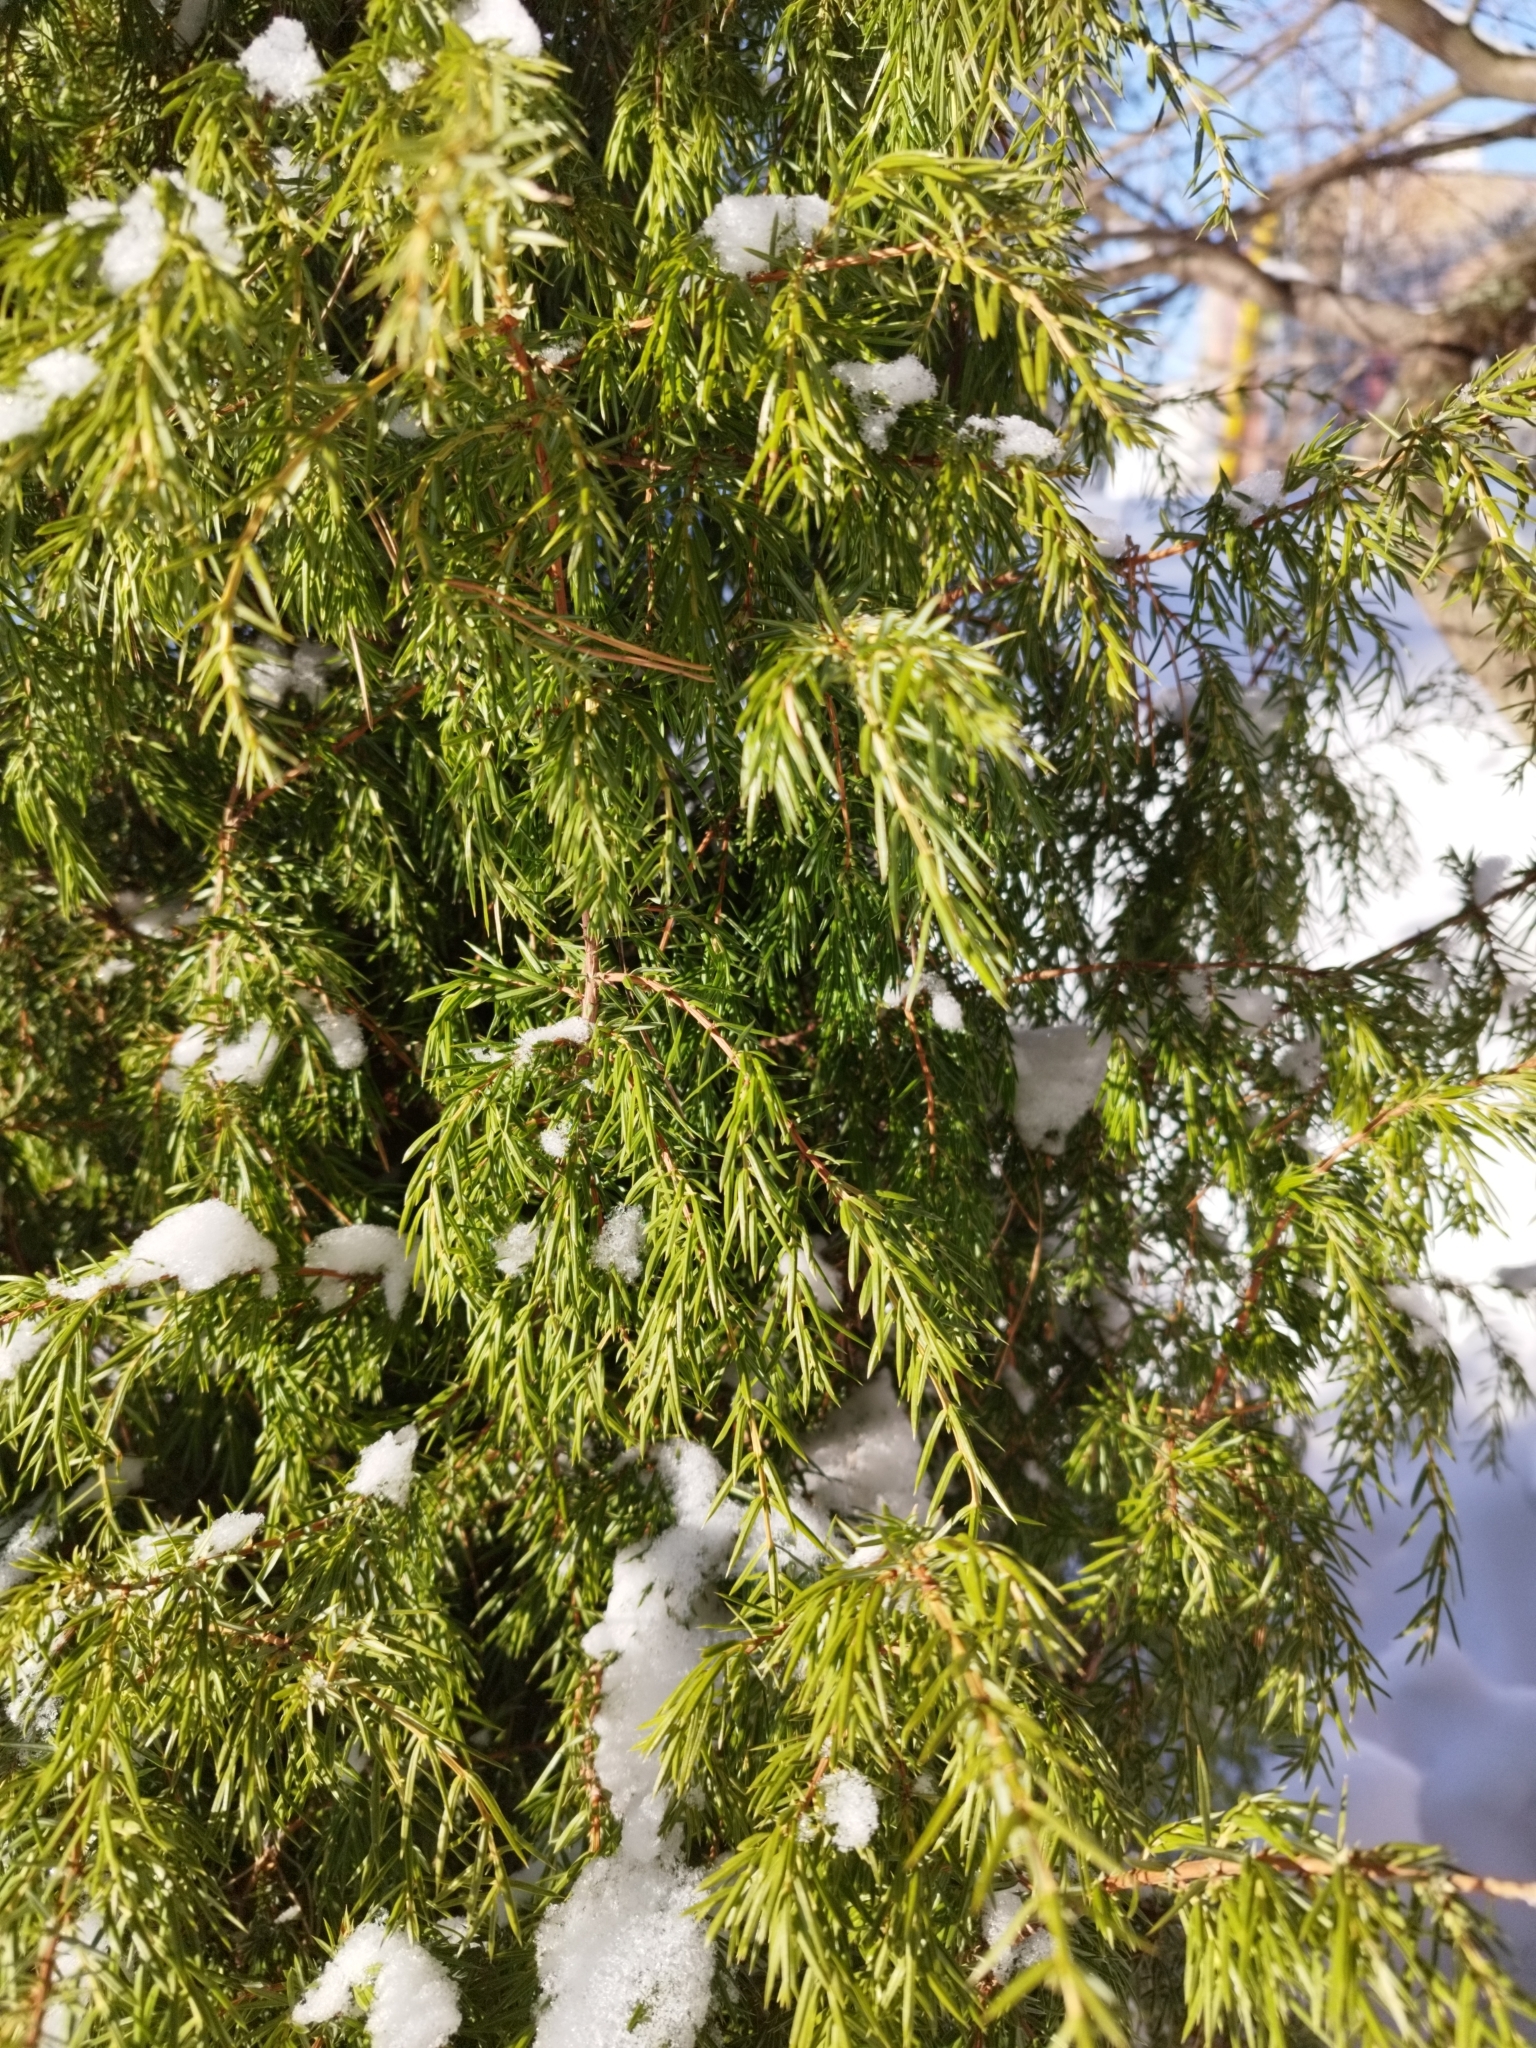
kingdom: Plantae
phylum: Tracheophyta
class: Pinopsida
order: Pinales
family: Cupressaceae
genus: Juniperus
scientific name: Juniperus communis
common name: Common juniper
